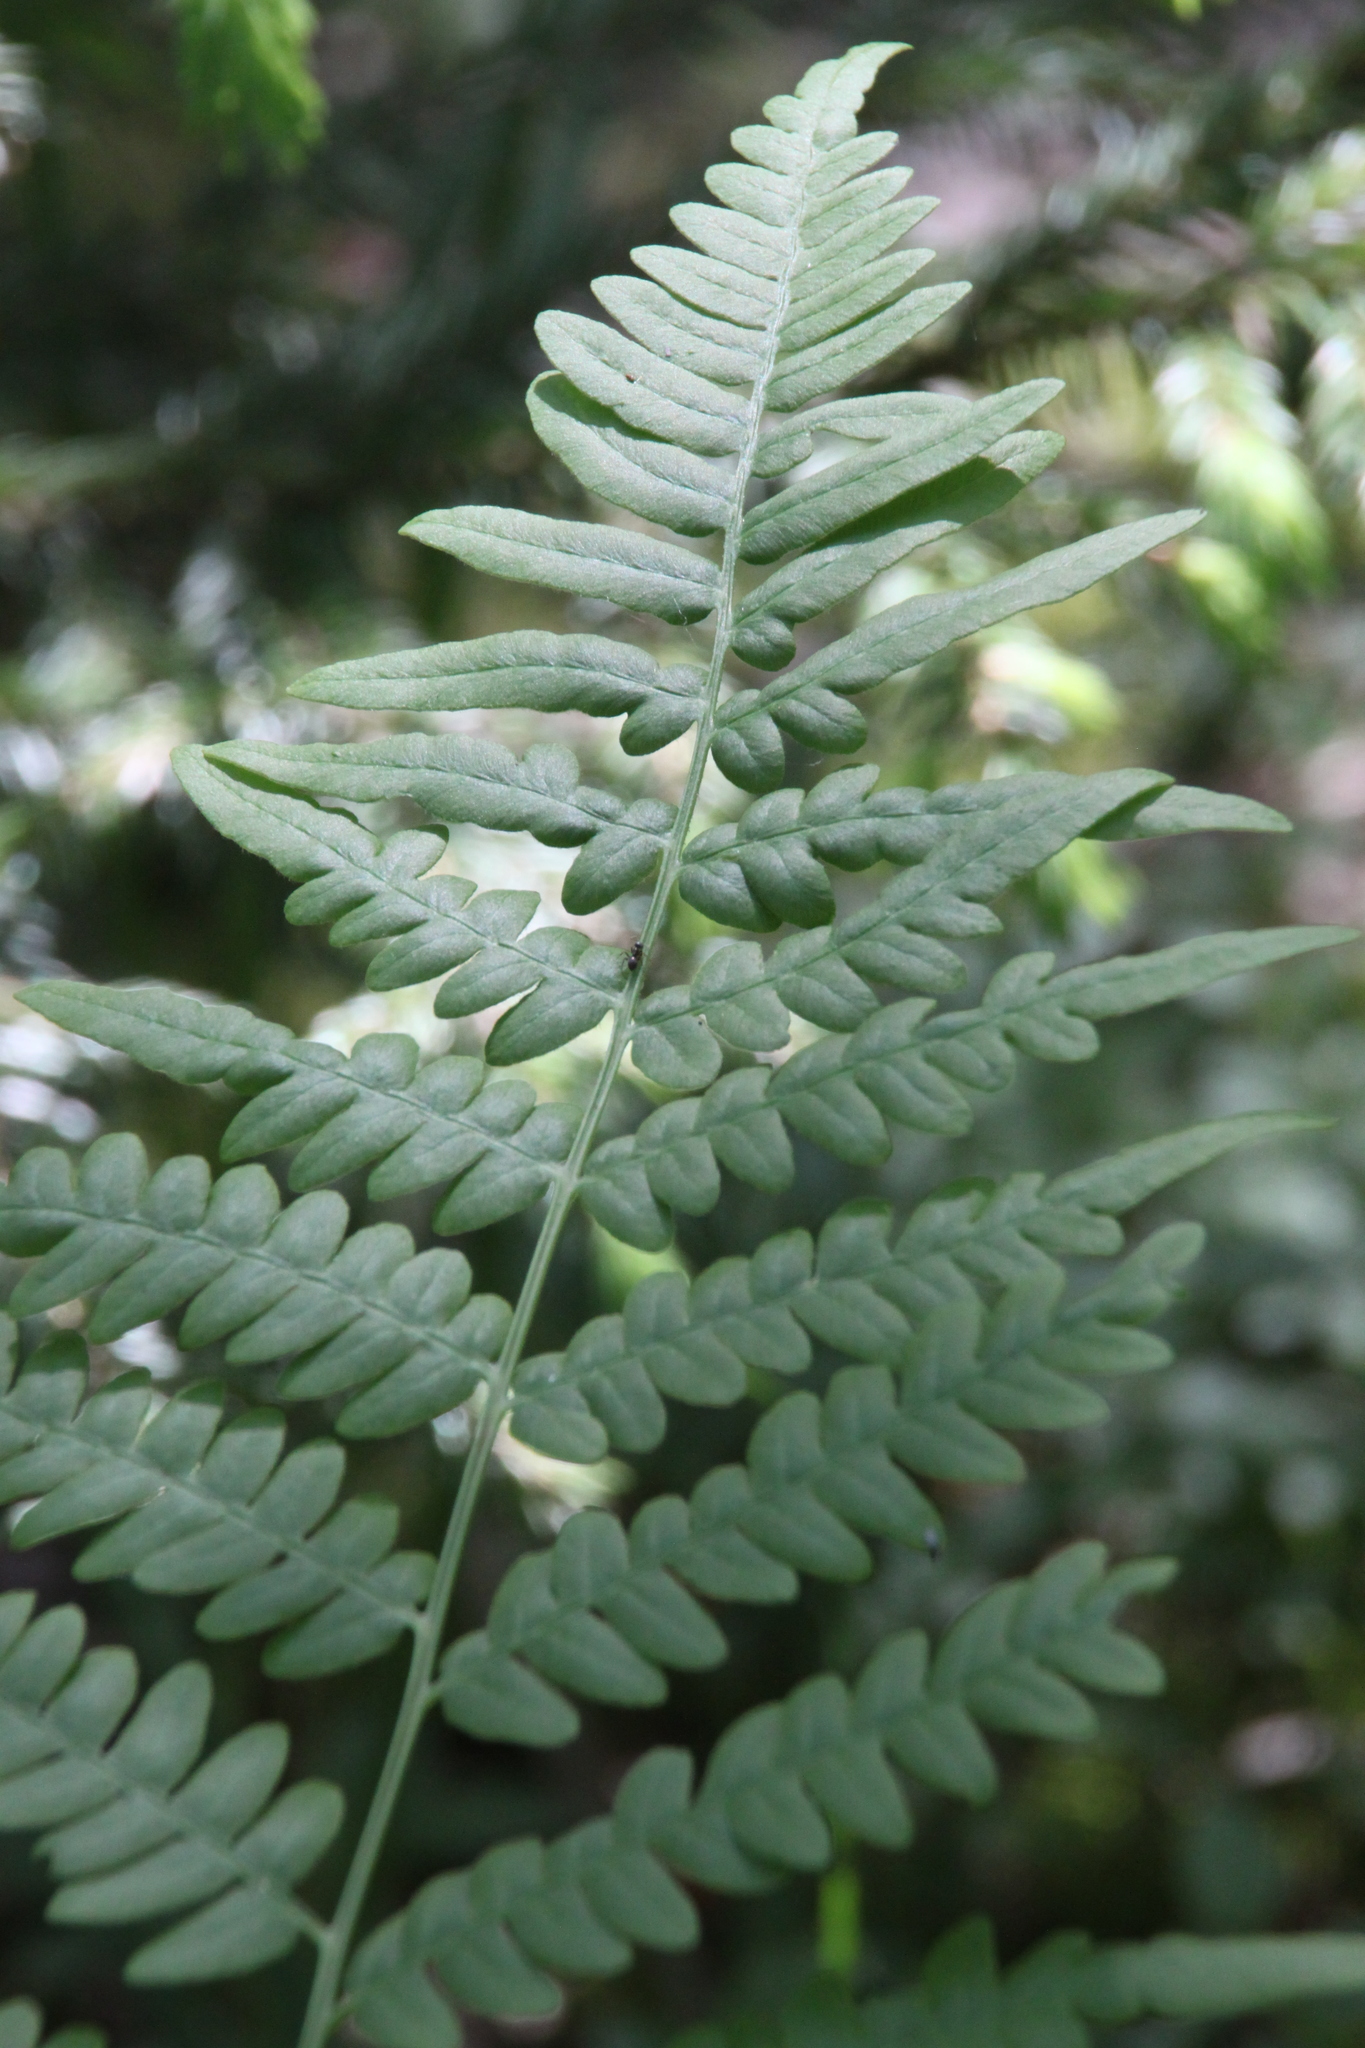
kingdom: Plantae
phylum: Tracheophyta
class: Polypodiopsida
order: Polypodiales
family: Dennstaedtiaceae
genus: Pteridium
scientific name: Pteridium aquilinum
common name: Bracken
